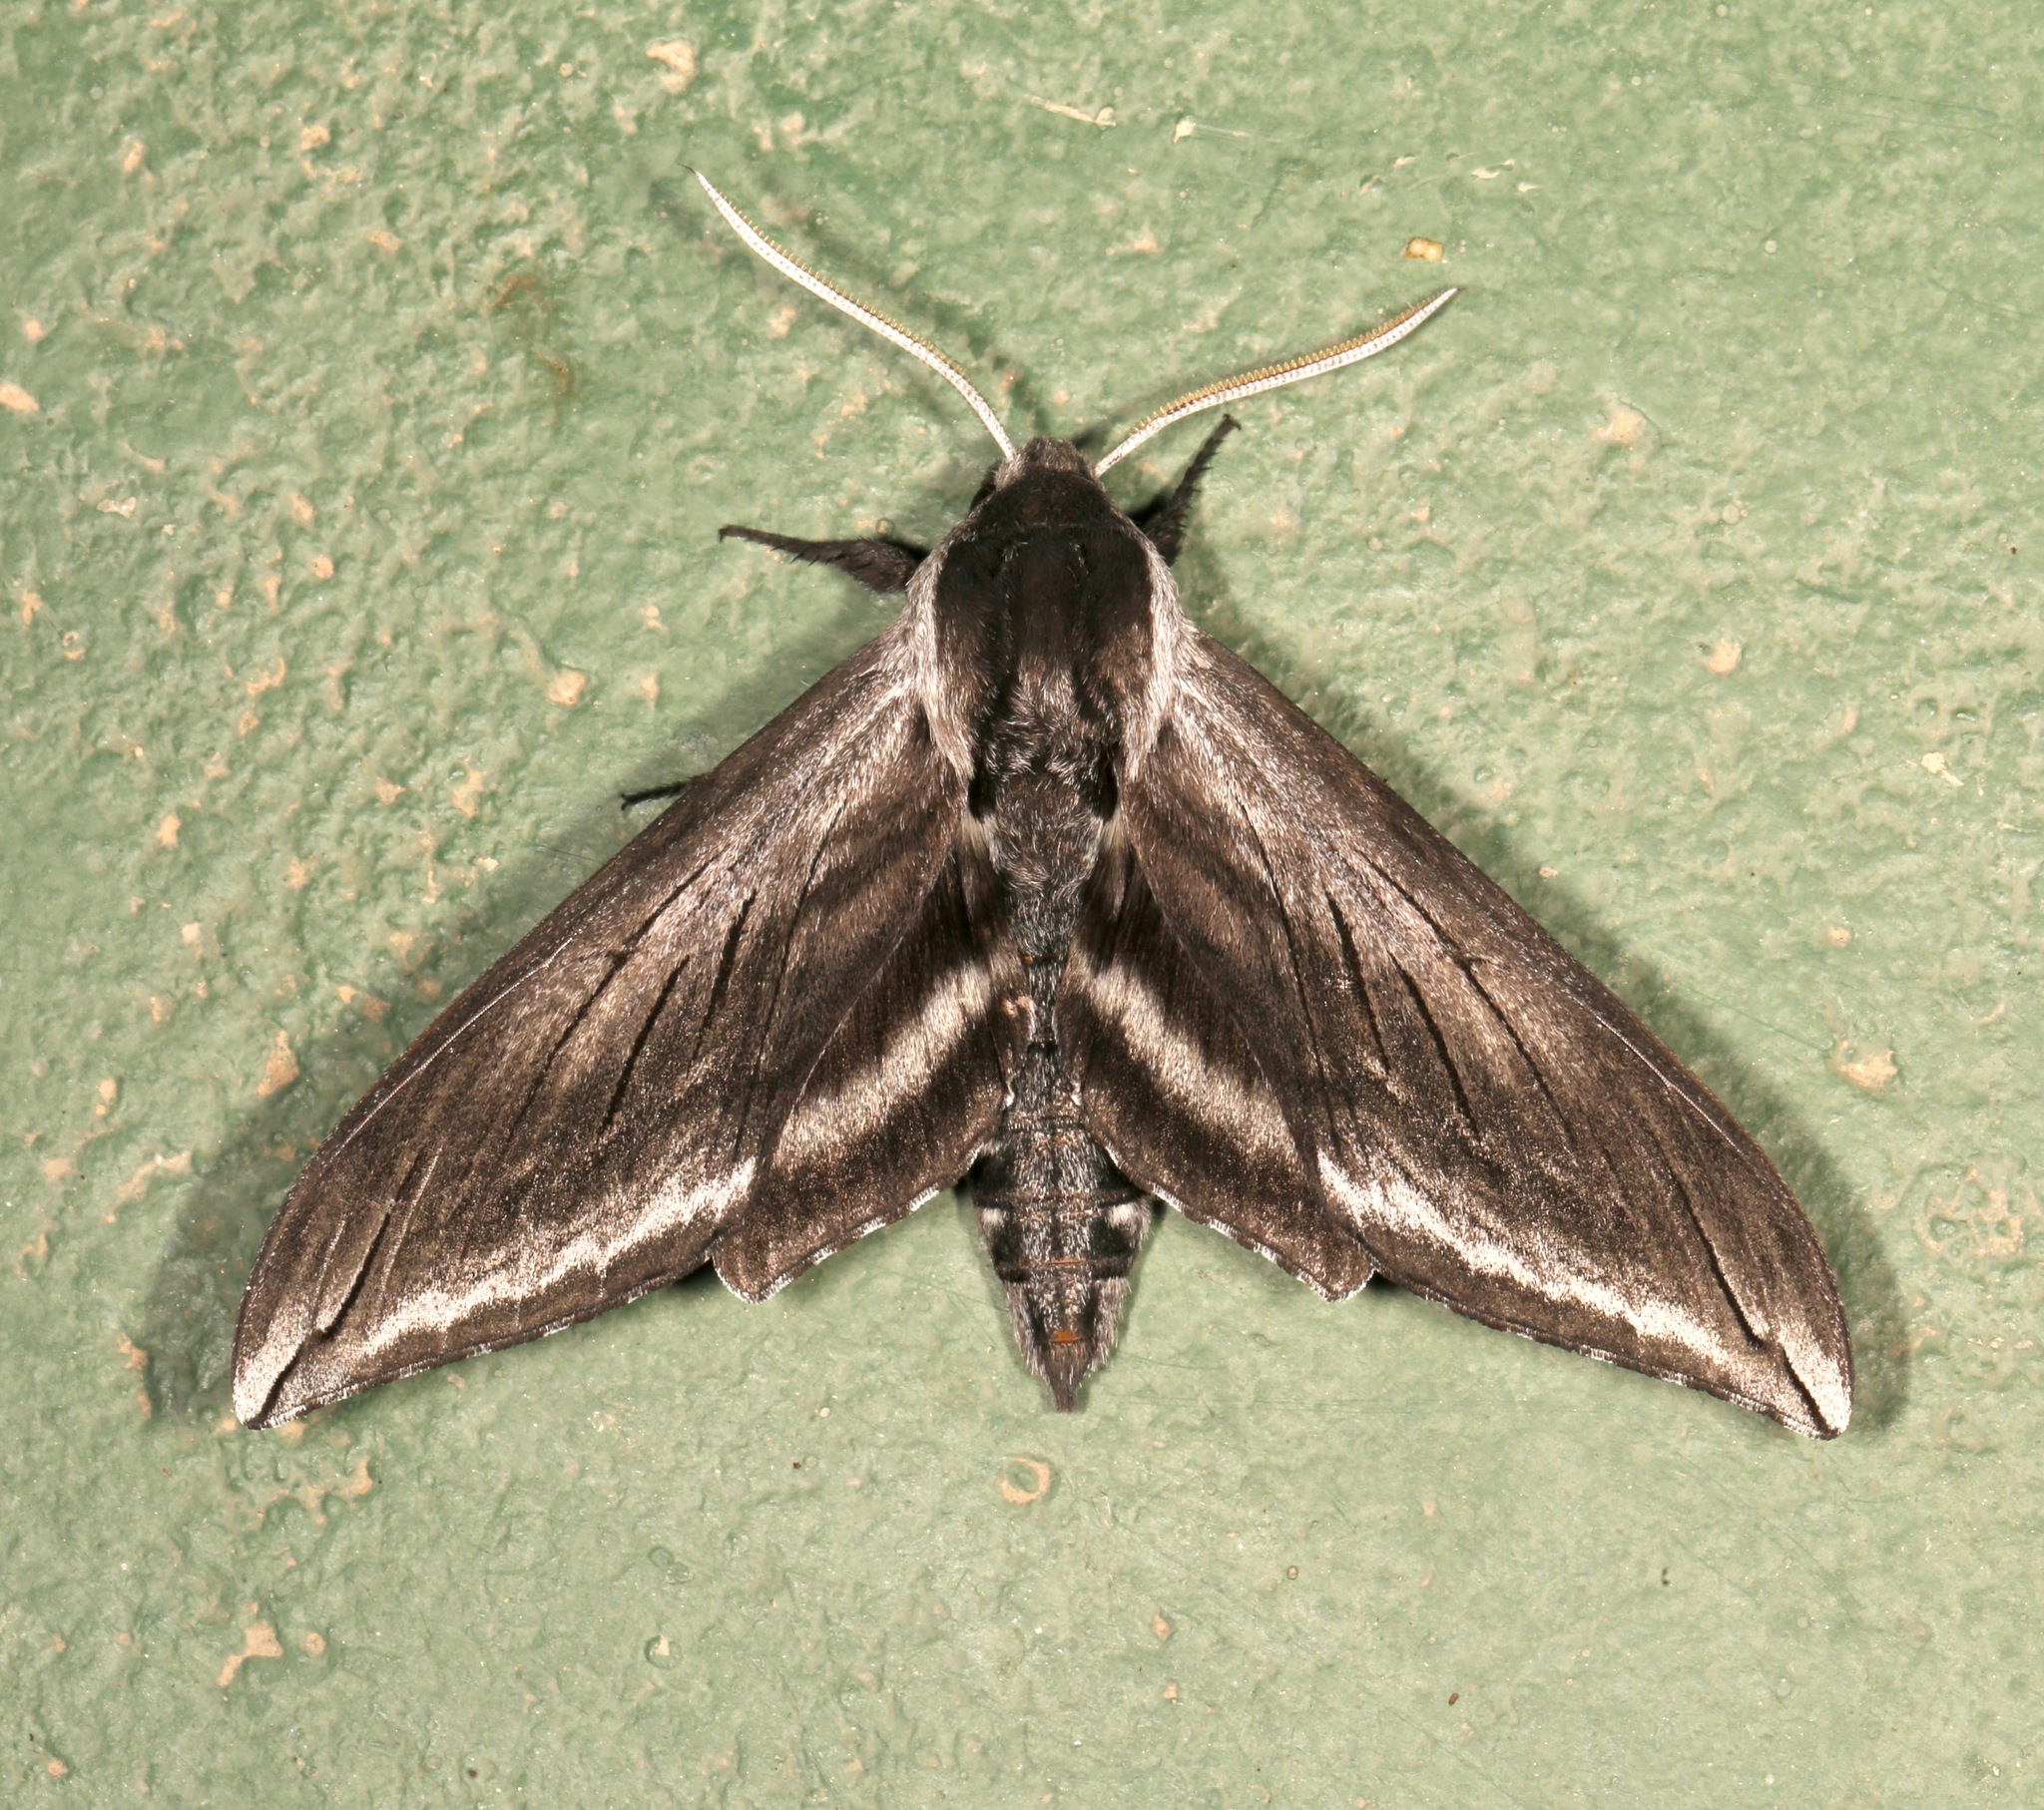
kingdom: Animalia
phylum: Arthropoda
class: Insecta
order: Lepidoptera
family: Sphingidae
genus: Sphinx
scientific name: Sphinx perelegans
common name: Elegant sphinx
